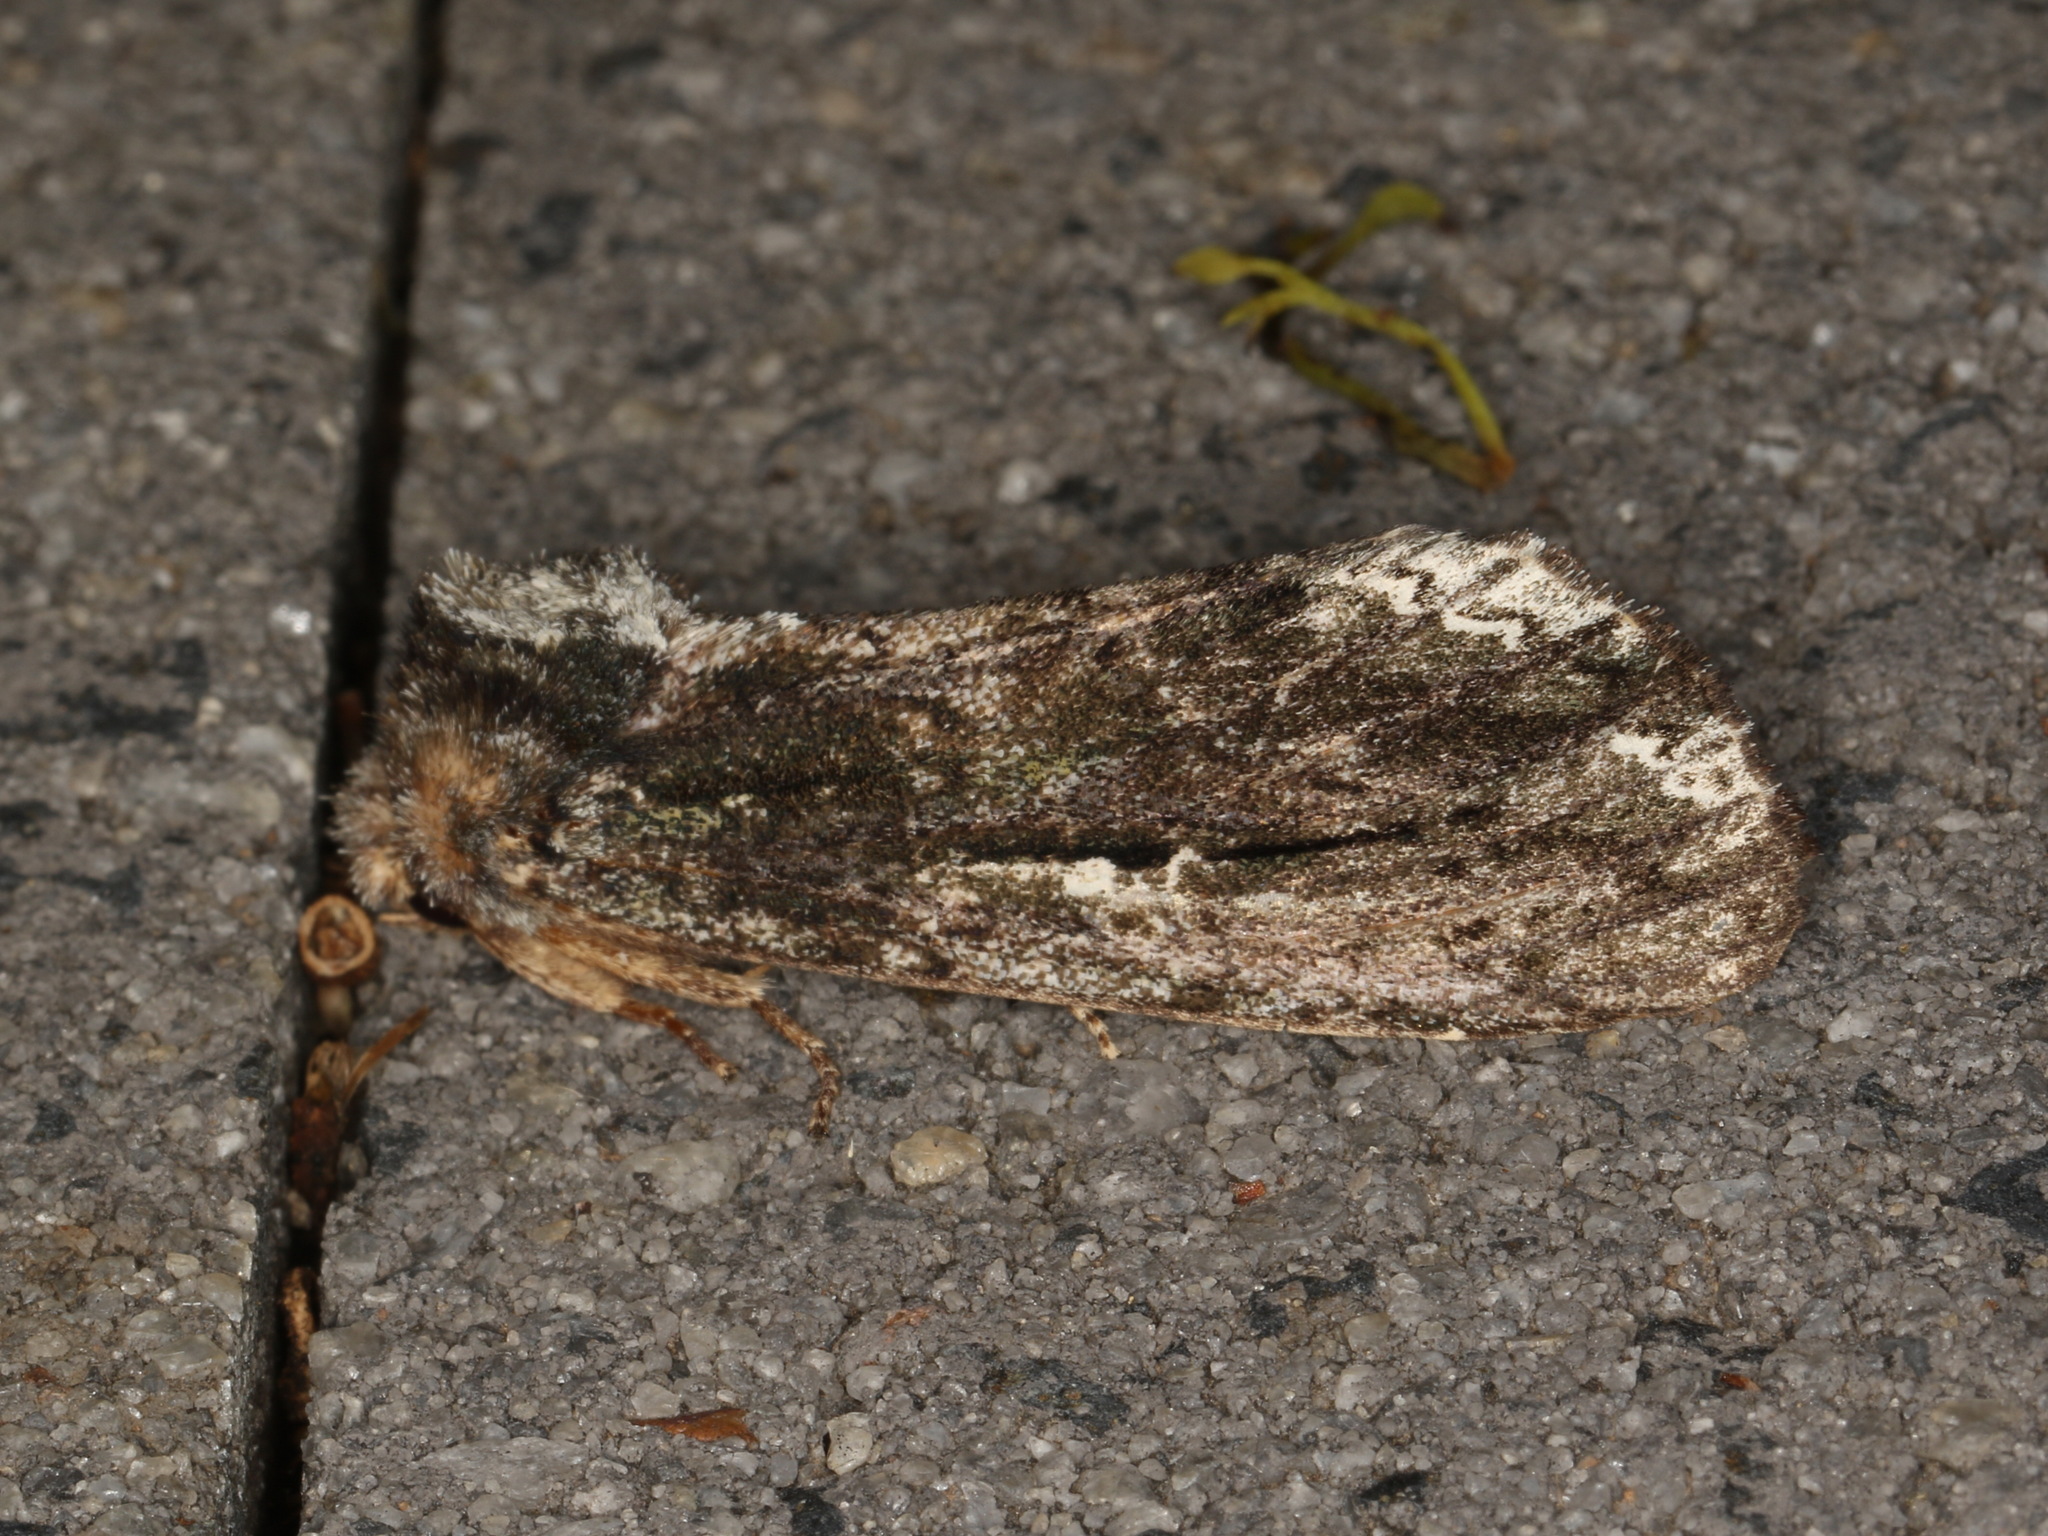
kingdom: Animalia
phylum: Arthropoda
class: Insecta
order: Lepidoptera
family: Notodontidae
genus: Neola
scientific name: Neola semiaurata
